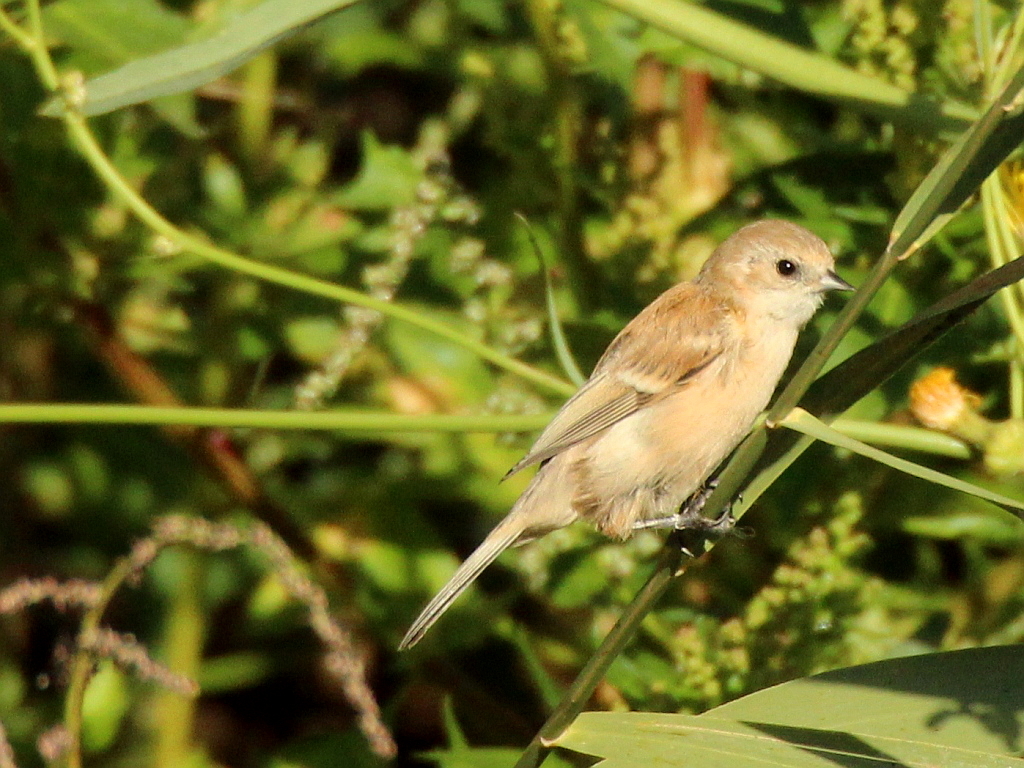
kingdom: Animalia
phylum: Chordata
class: Aves
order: Passeriformes
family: Remizidae
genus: Remiz
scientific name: Remiz pendulinus
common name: Eurasian penduline tit
